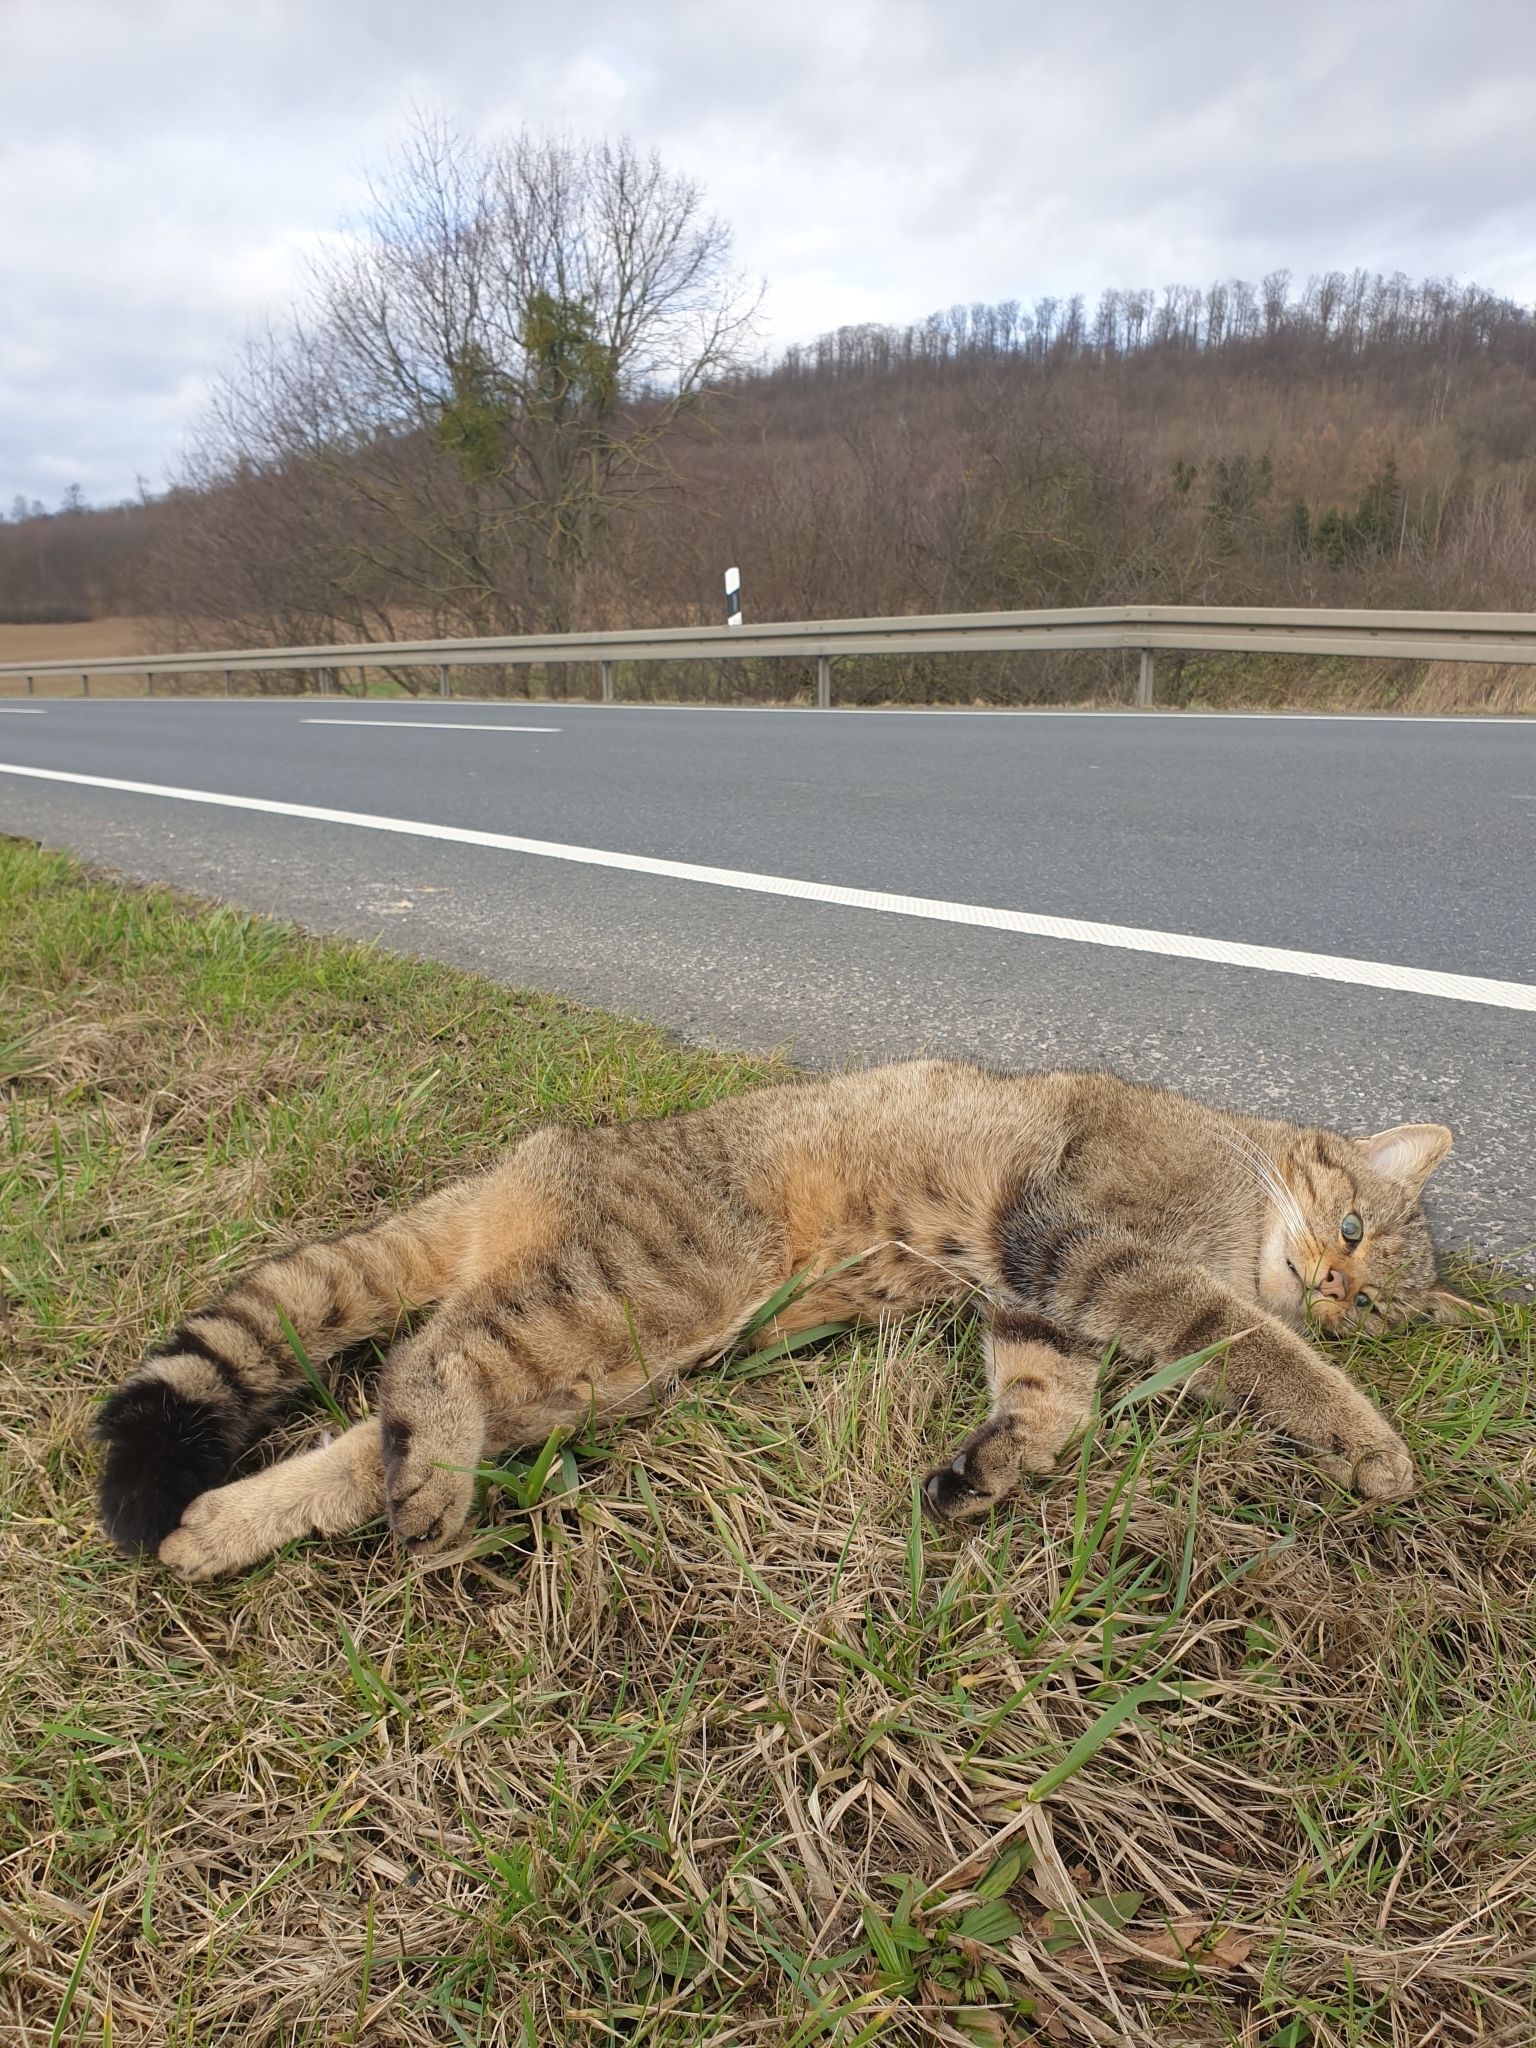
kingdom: Animalia
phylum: Chordata
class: Mammalia
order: Carnivora
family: Felidae
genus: Felis
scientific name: Felis silvestris
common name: Wildcat
